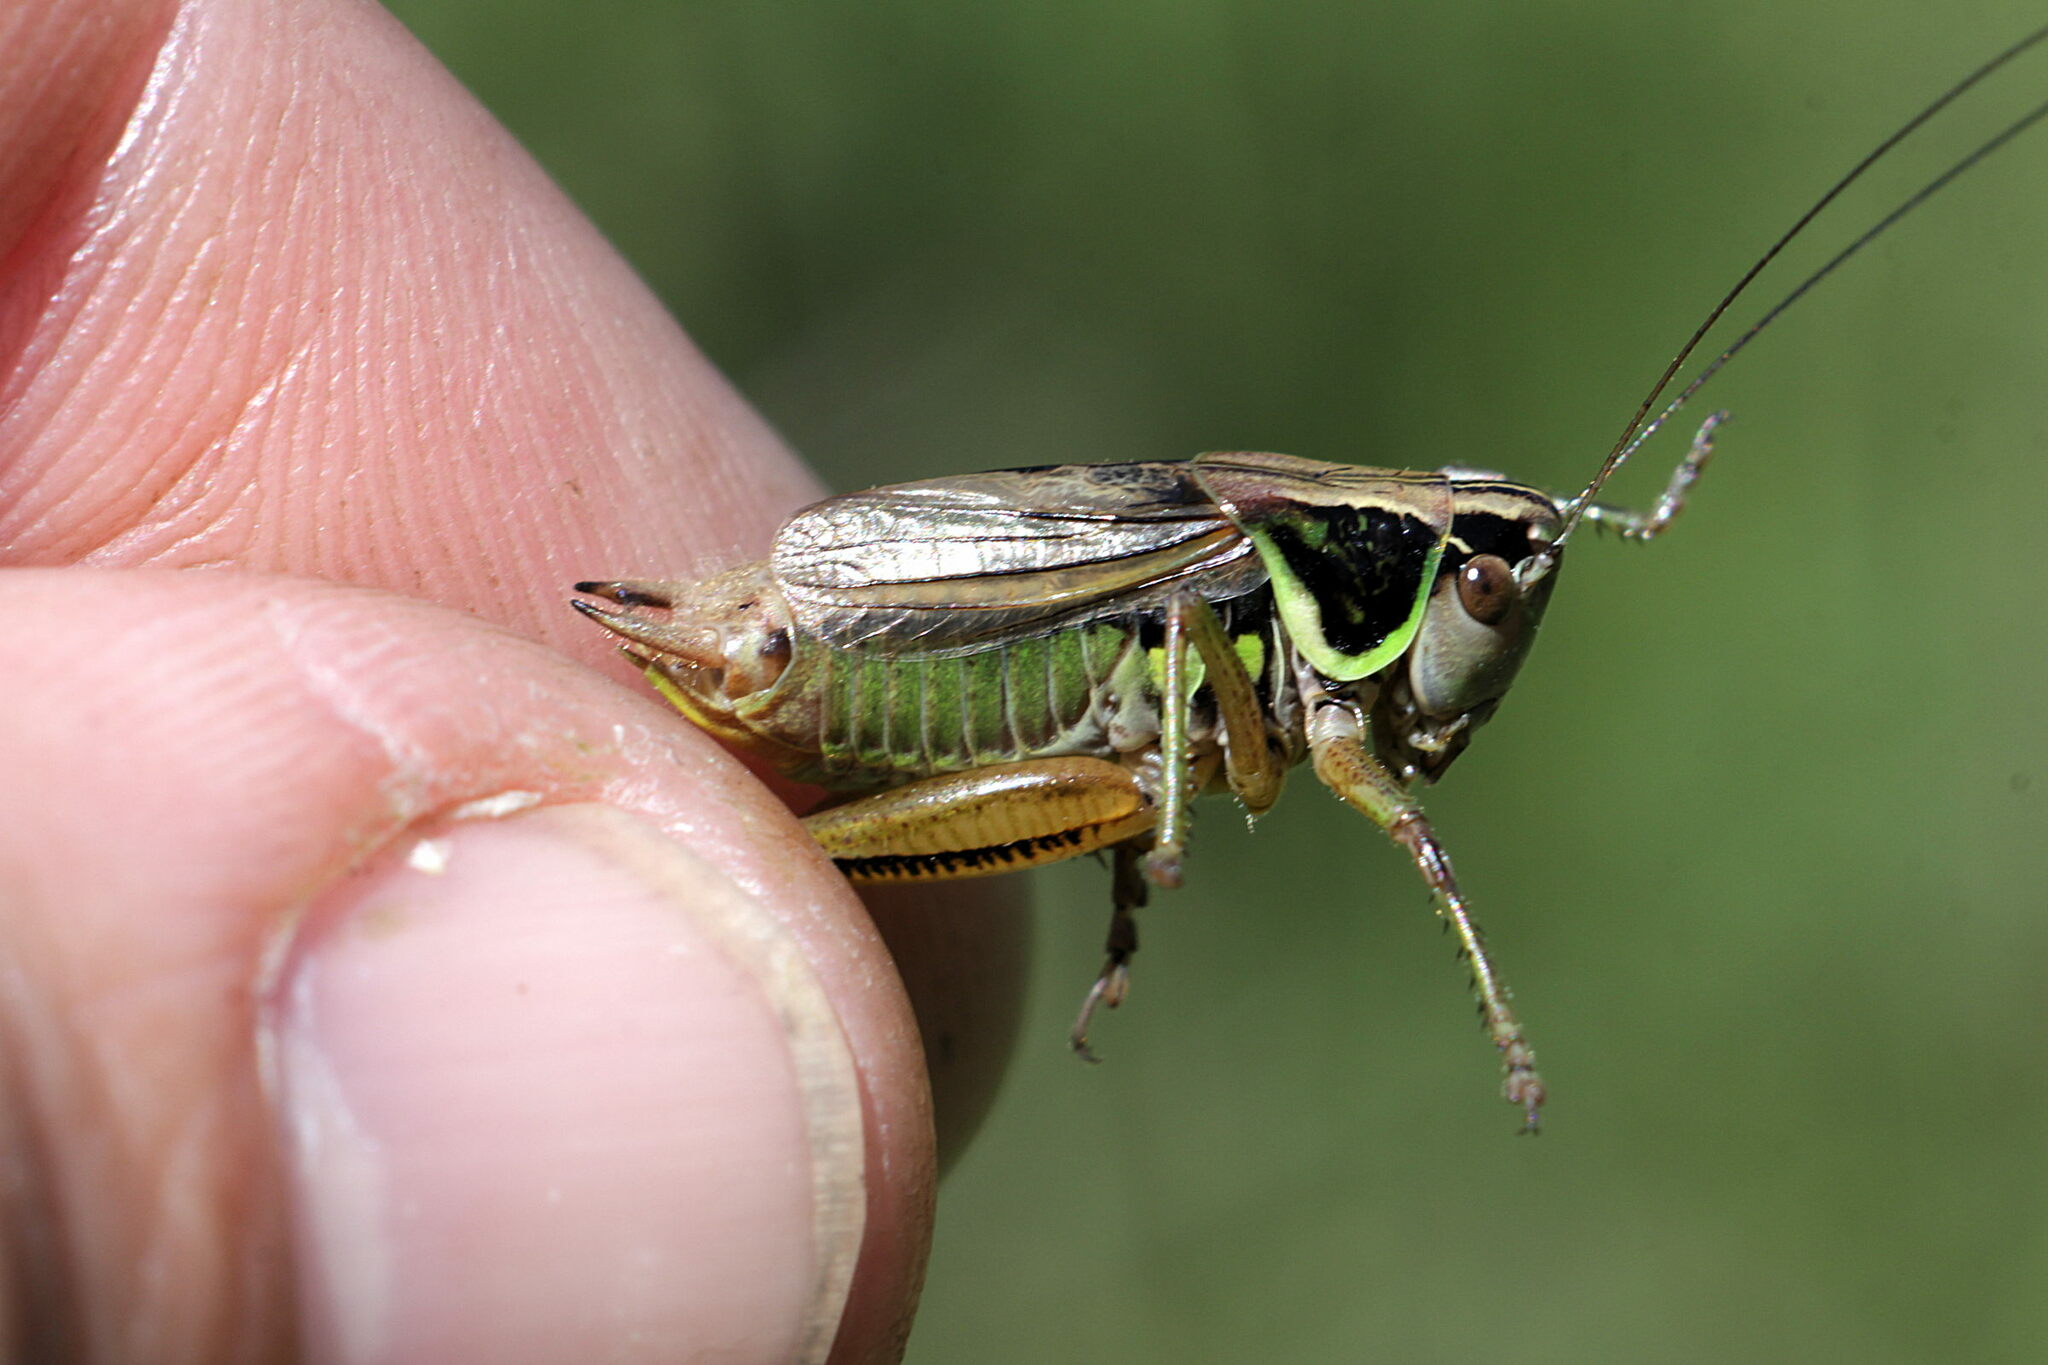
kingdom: Animalia
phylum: Arthropoda
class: Insecta
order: Orthoptera
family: Tettigoniidae
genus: Roeseliana
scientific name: Roeseliana roeselii
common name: Roesel's bush cricket
